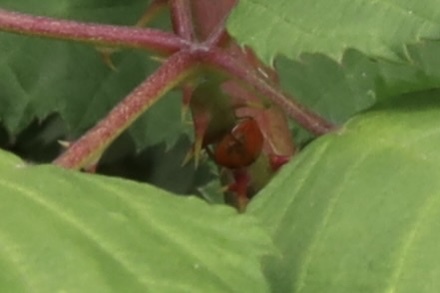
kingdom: Animalia
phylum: Arthropoda
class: Insecta
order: Coleoptera
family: Coccinellidae
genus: Harmonia
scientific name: Harmonia axyridis
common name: Harlequin ladybird
